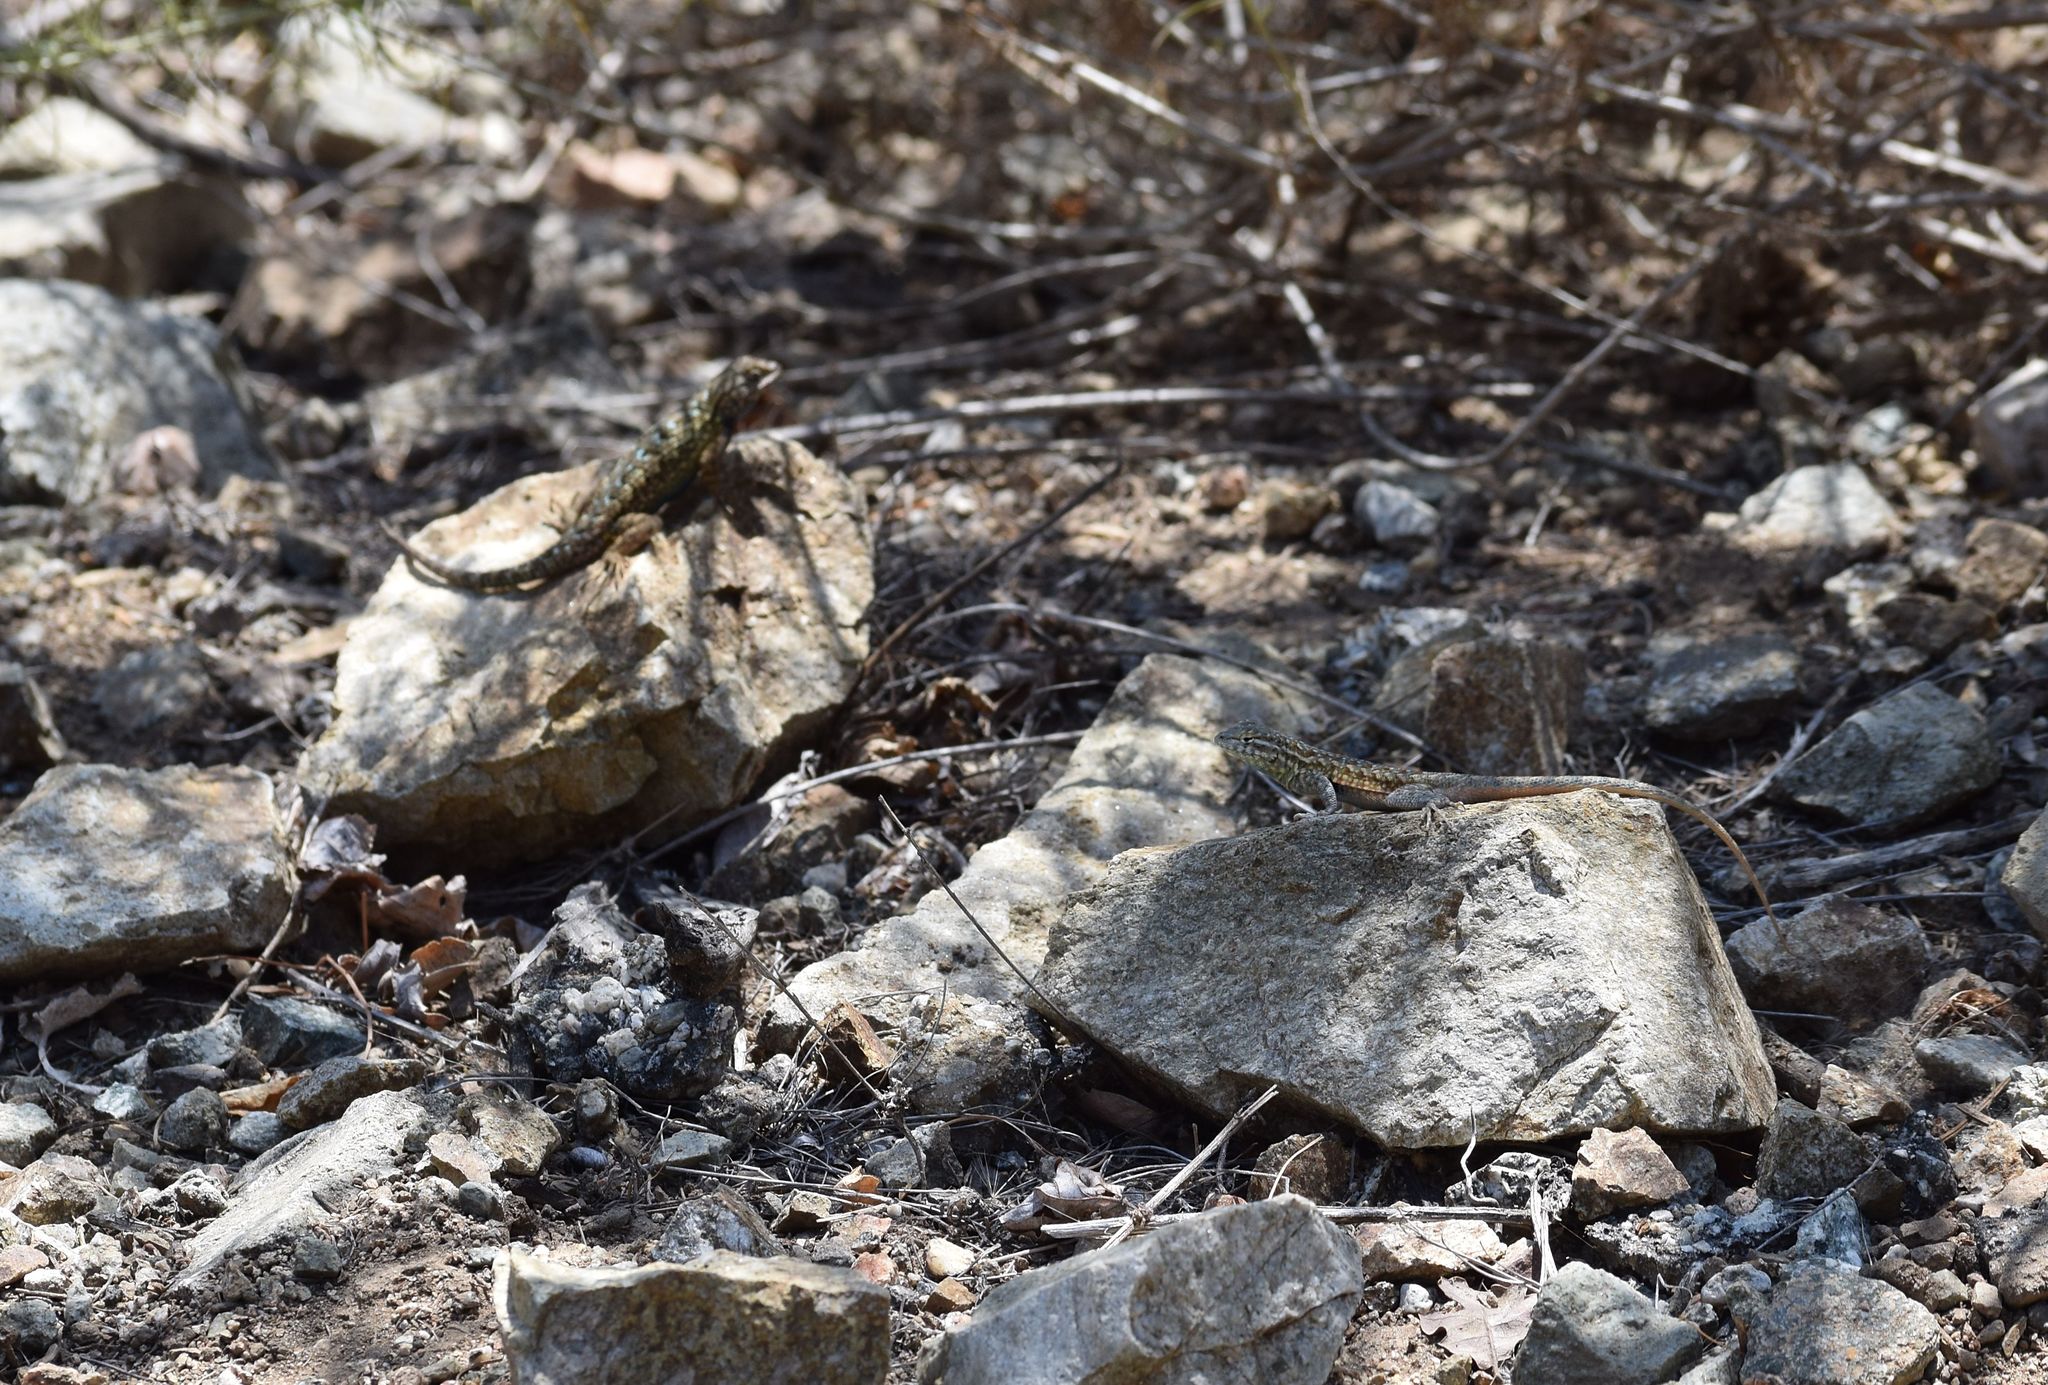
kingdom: Animalia
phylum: Chordata
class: Squamata
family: Phrynosomatidae
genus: Uta
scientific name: Uta stansburiana
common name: Side-blotched lizard
